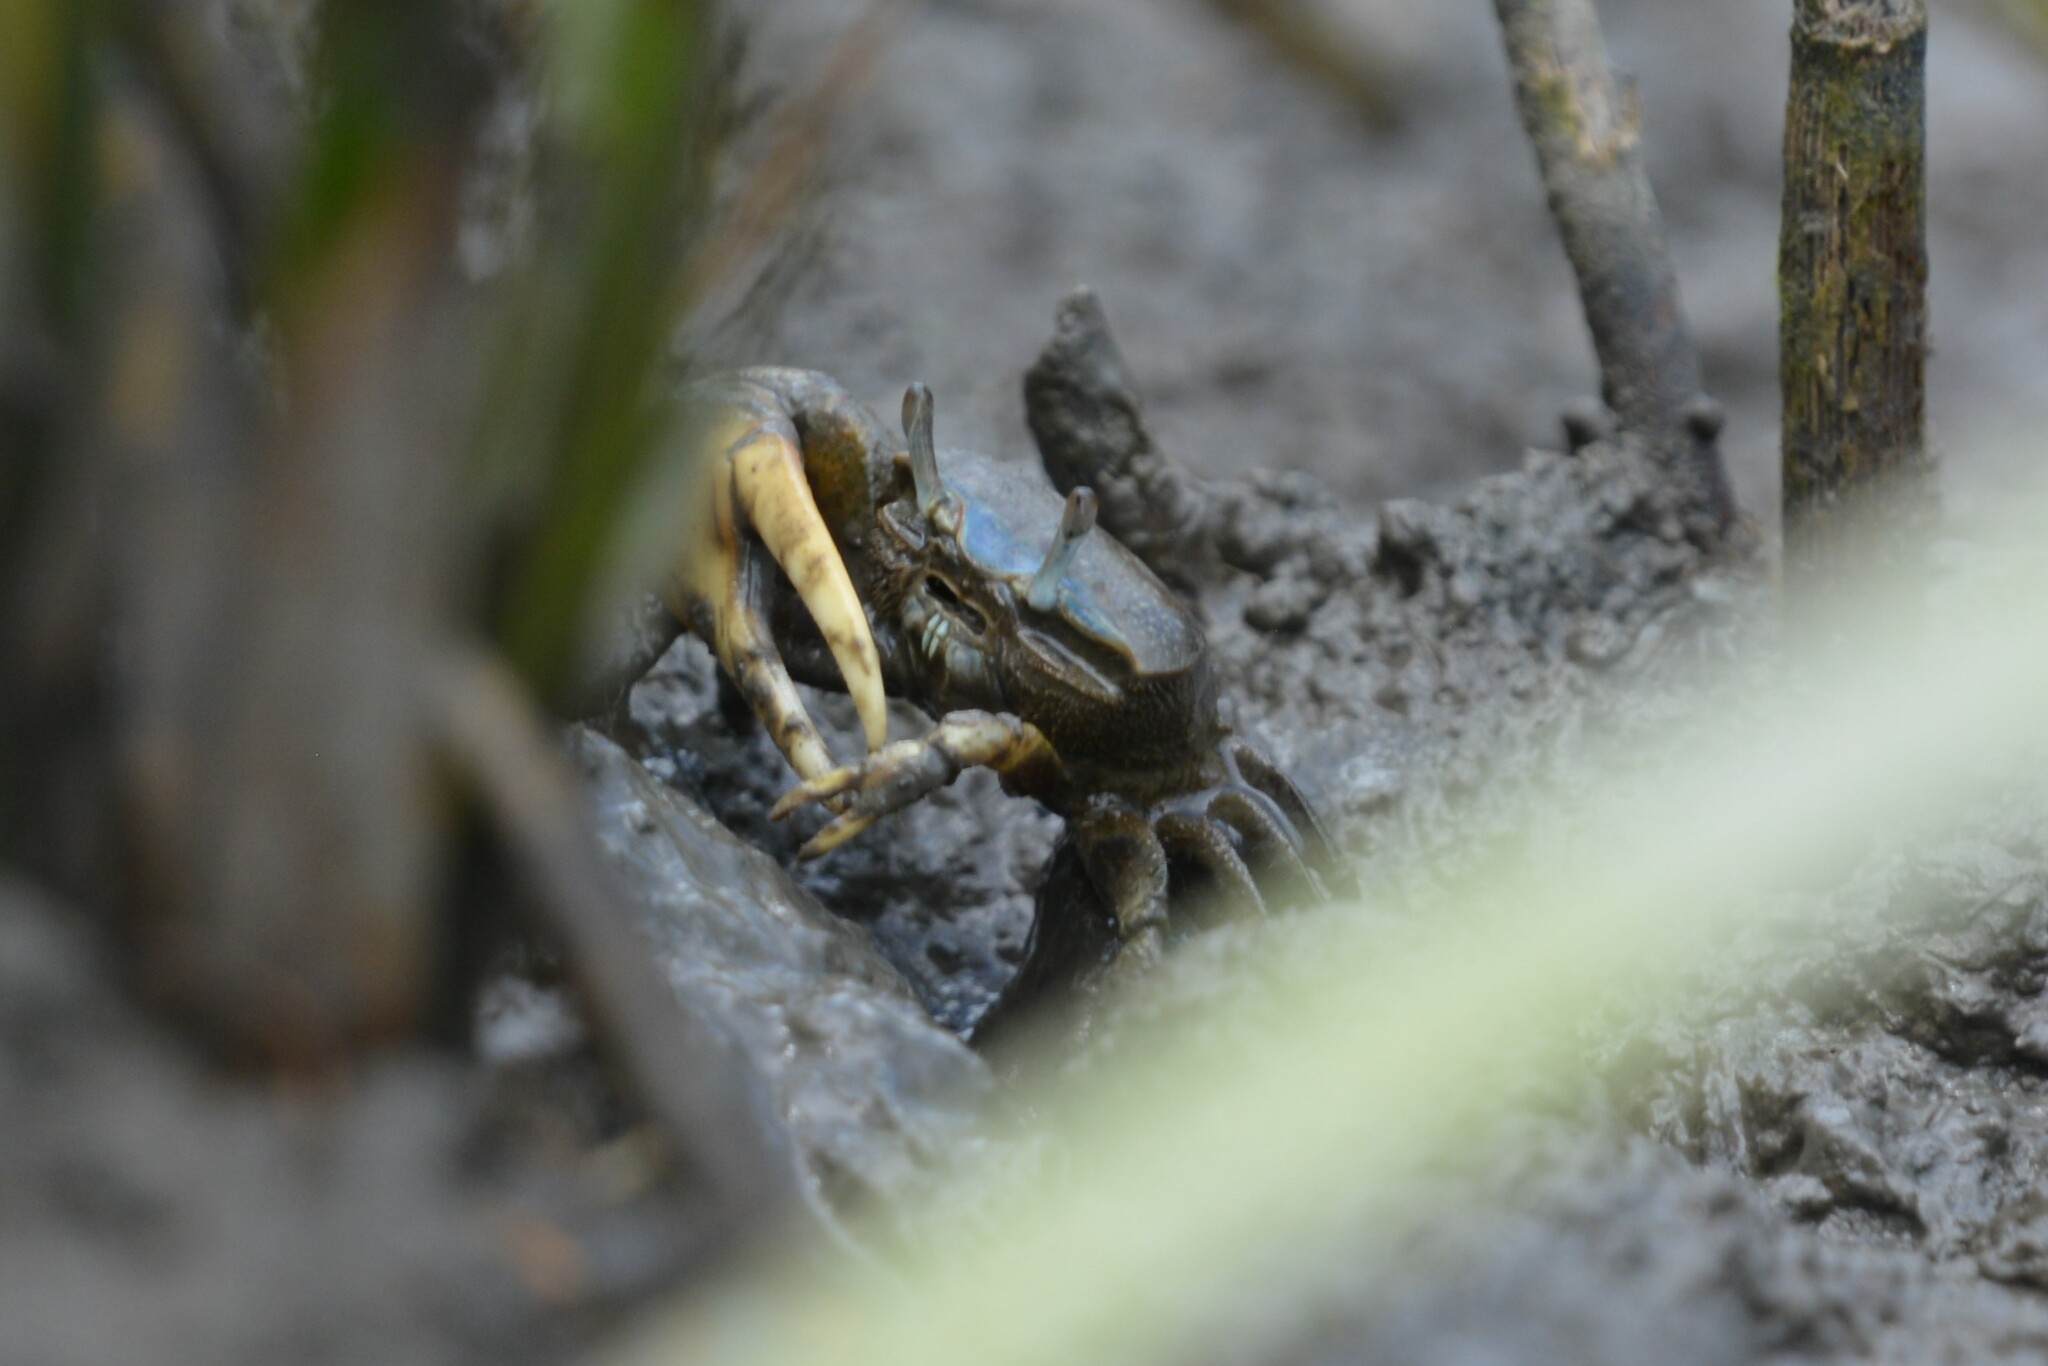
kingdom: Animalia
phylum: Arthropoda
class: Malacostraca
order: Decapoda
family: Ocypodidae
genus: Minuca
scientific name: Minuca pugnax
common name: Mud fiddler crab
